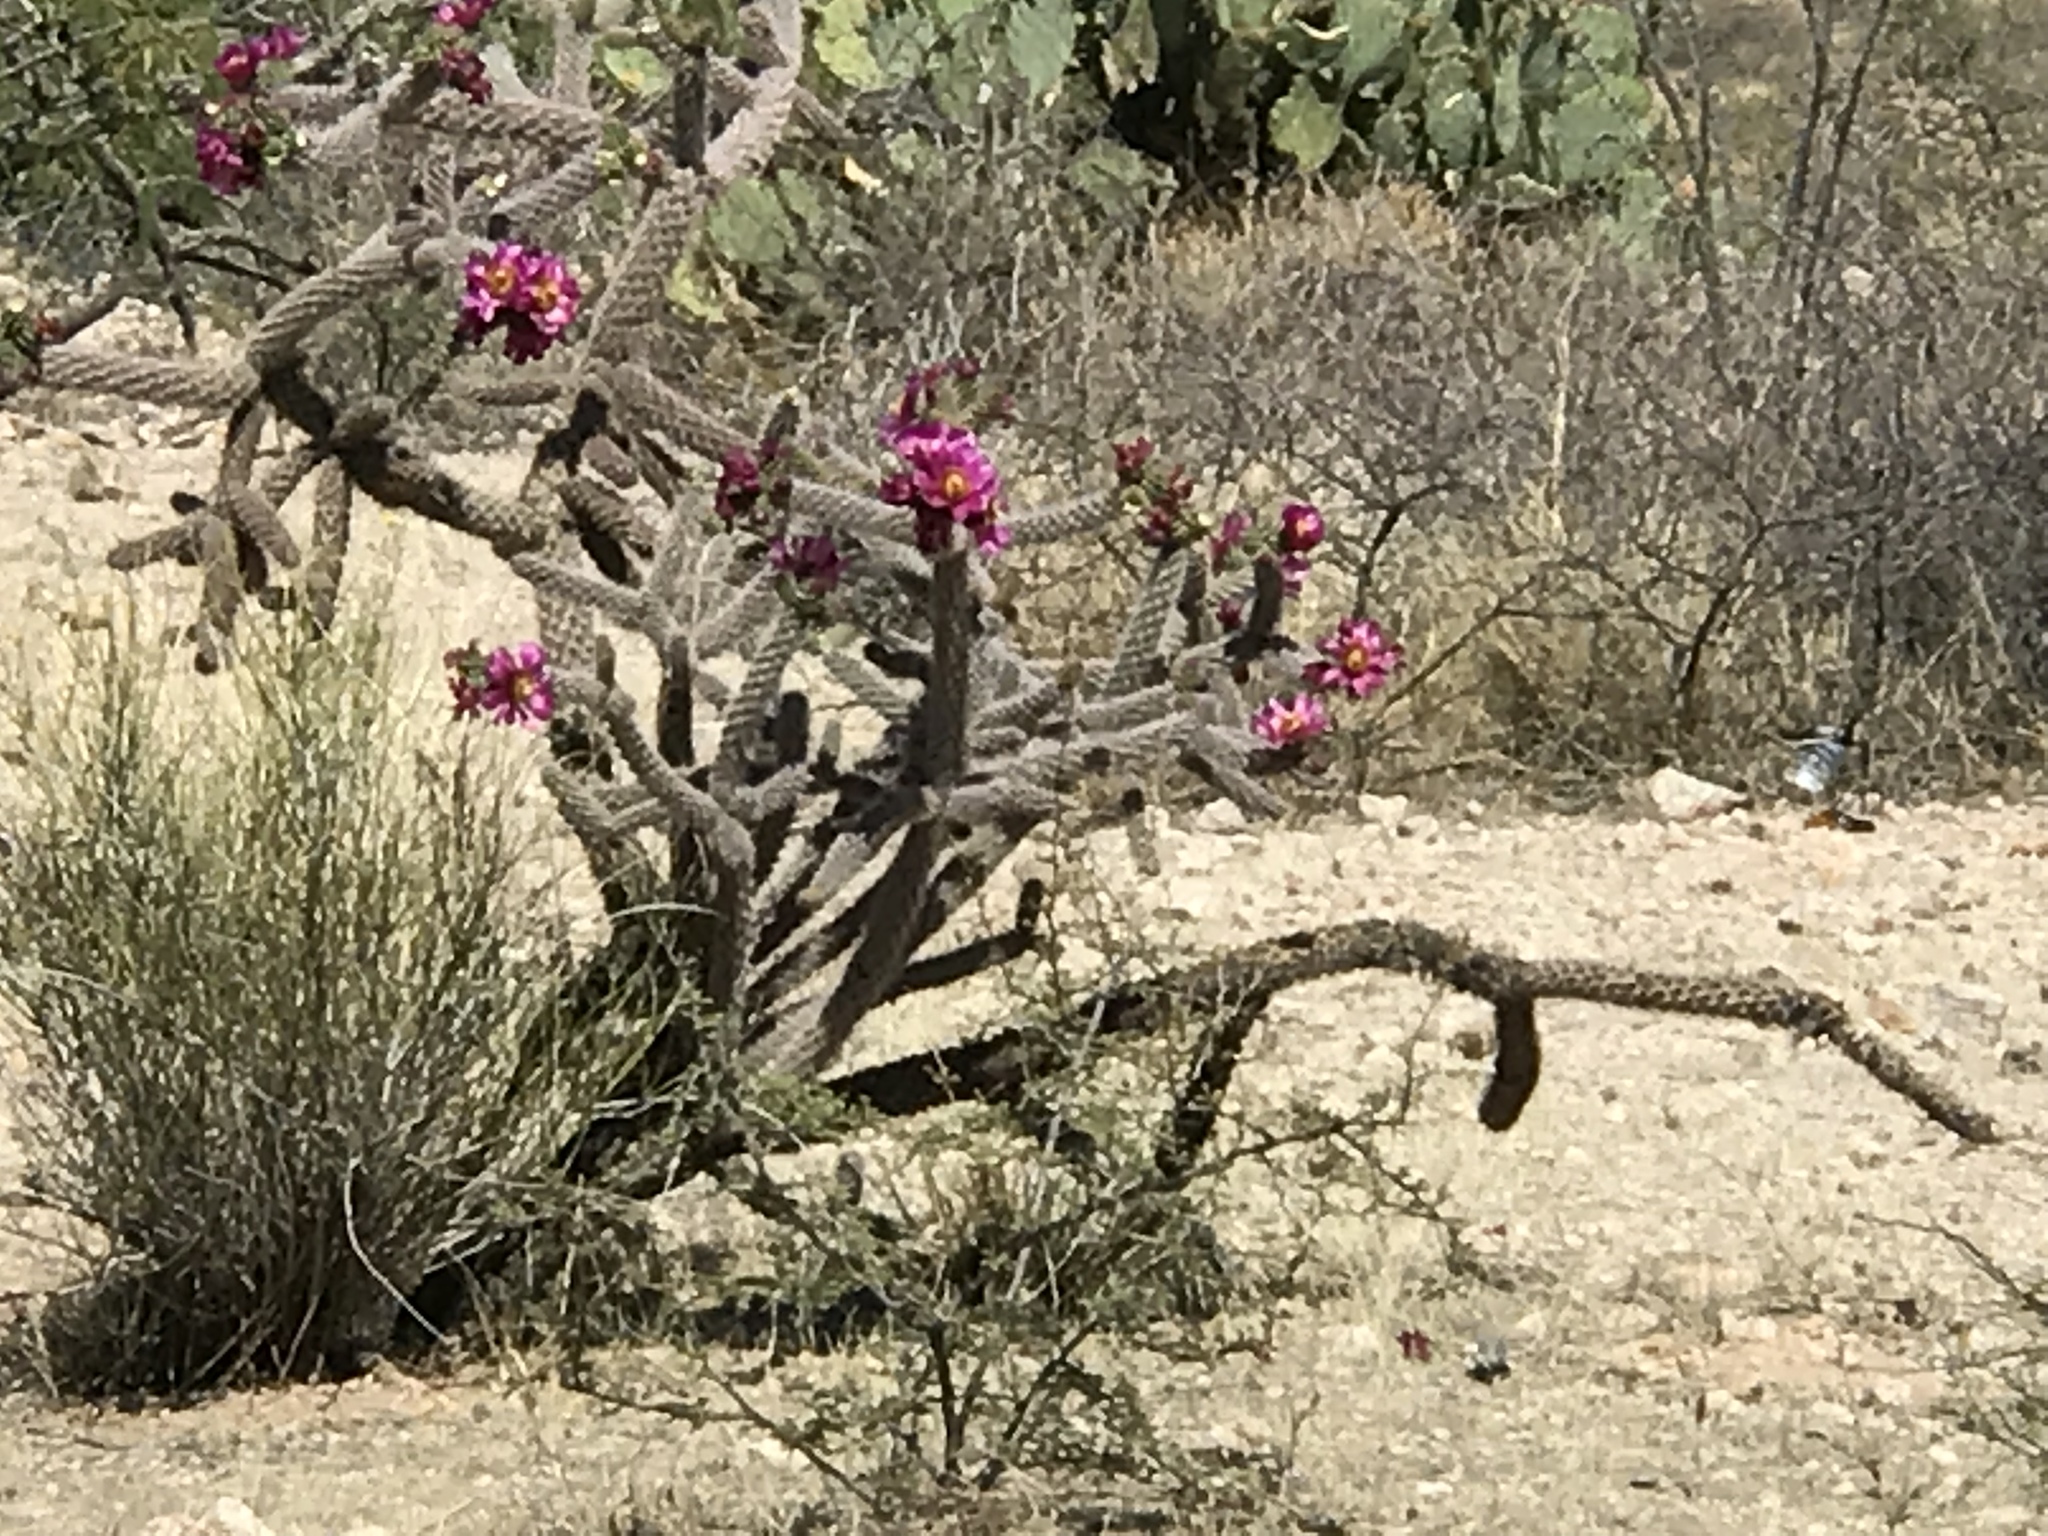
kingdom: Plantae
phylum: Tracheophyta
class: Magnoliopsida
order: Caryophyllales
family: Cactaceae
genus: Cylindropuntia
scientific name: Cylindropuntia imbricata
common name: Candelabrum cactus
